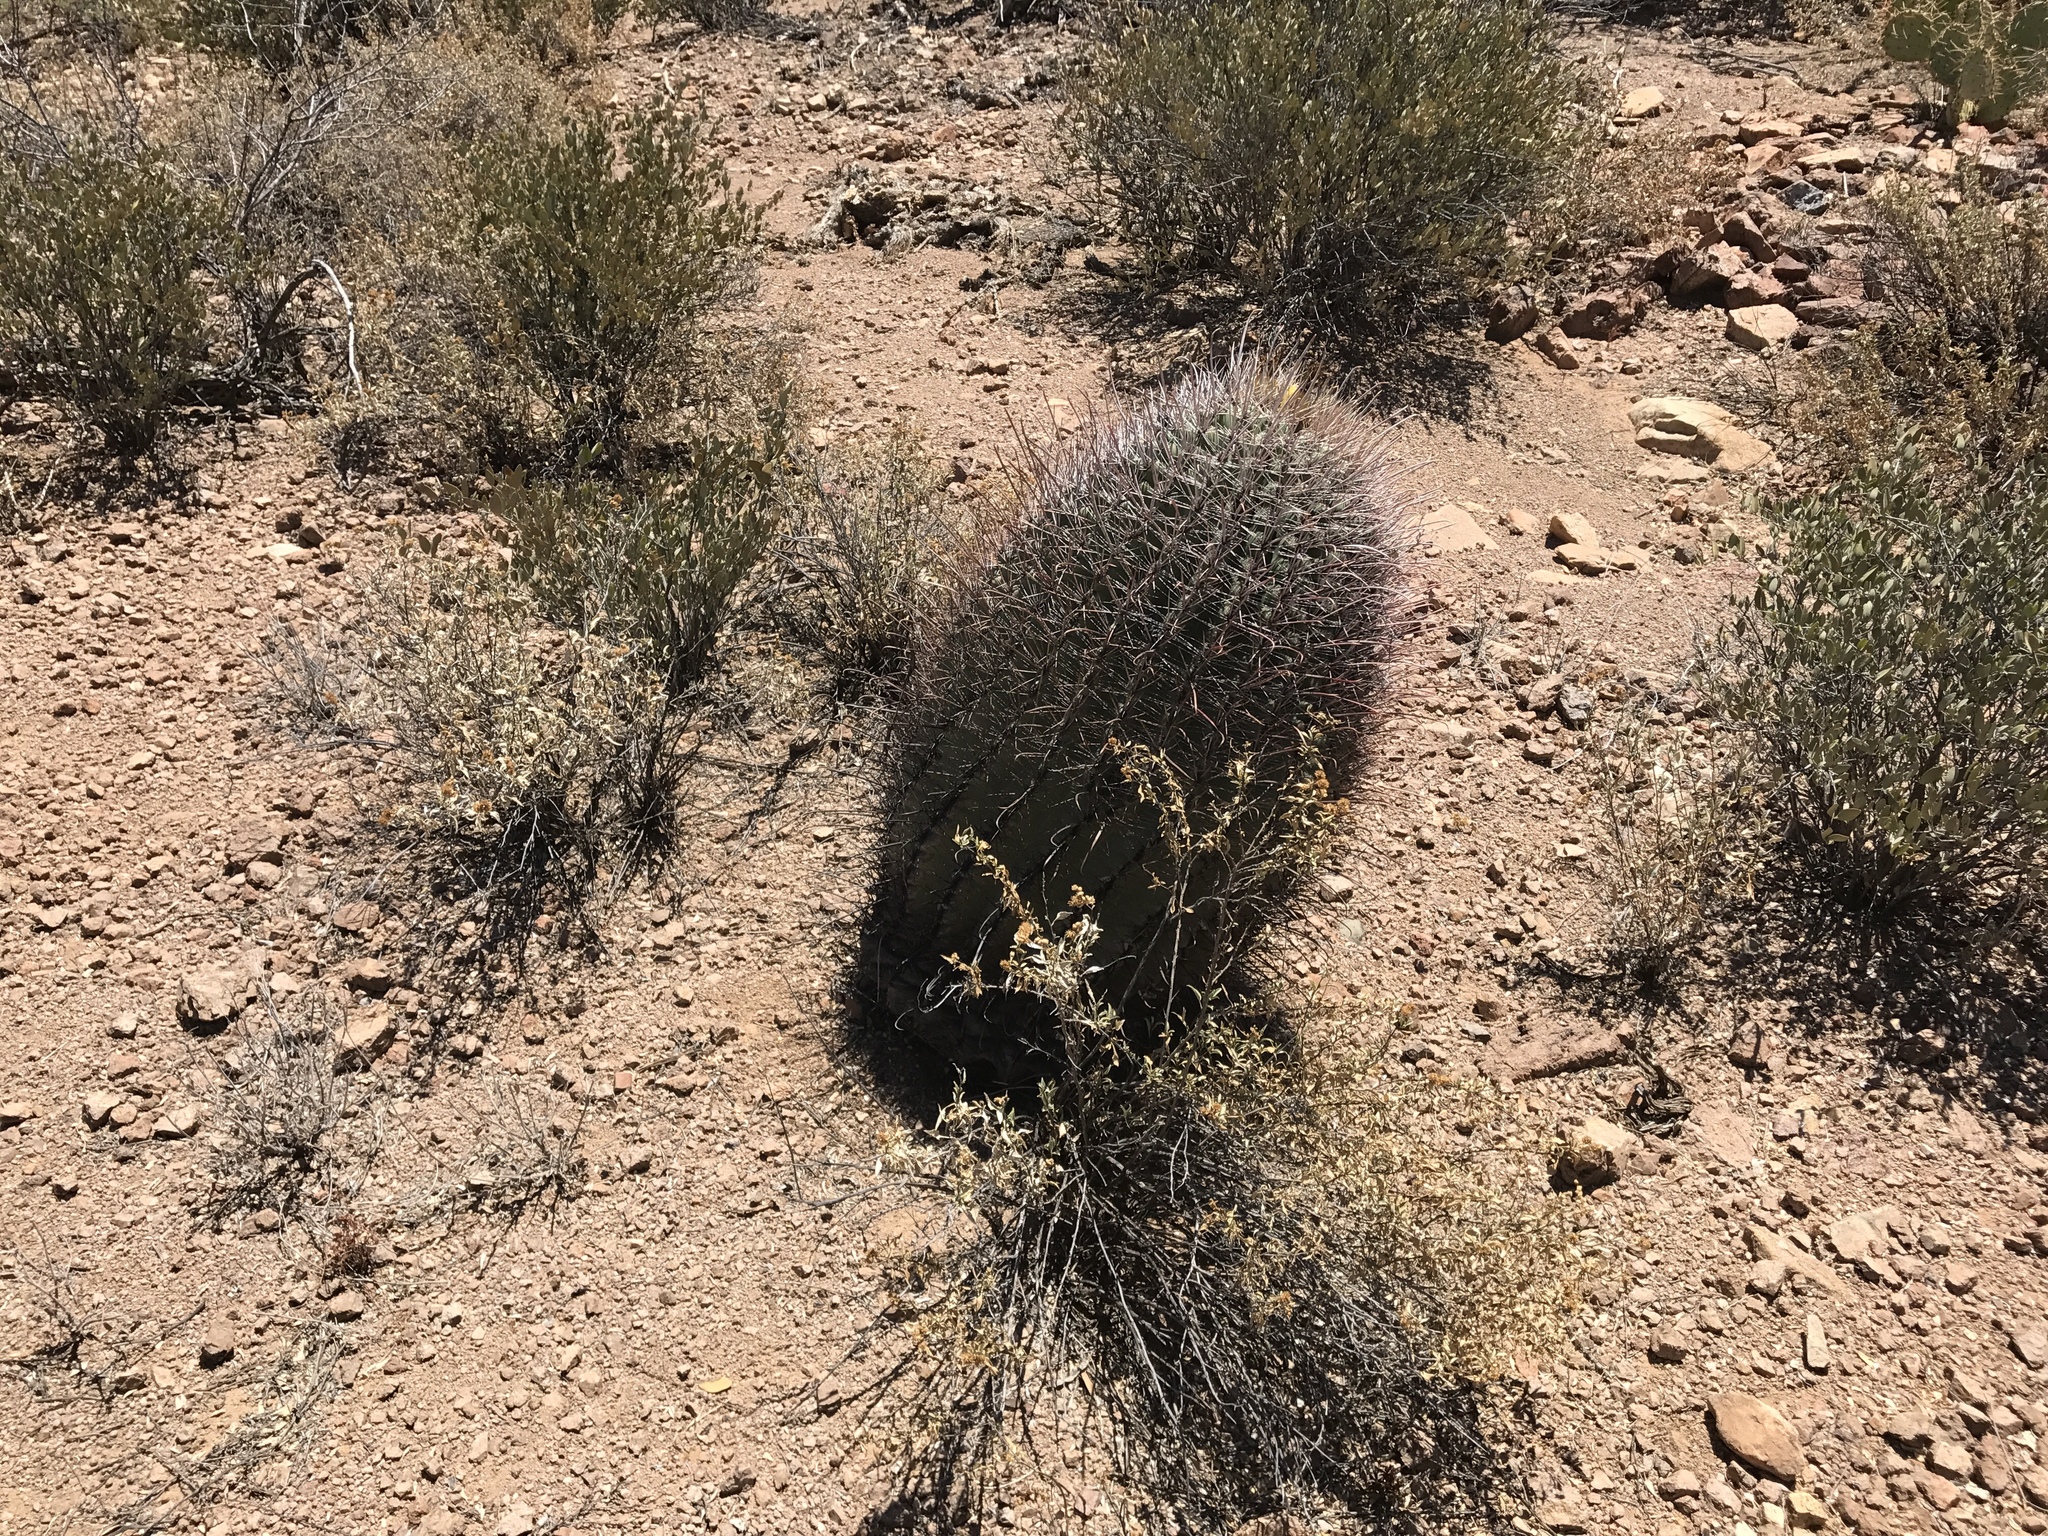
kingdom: Plantae
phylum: Tracheophyta
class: Magnoliopsida
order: Caryophyllales
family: Cactaceae
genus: Ferocactus
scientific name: Ferocactus wislizeni
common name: Candy barrel cactus
